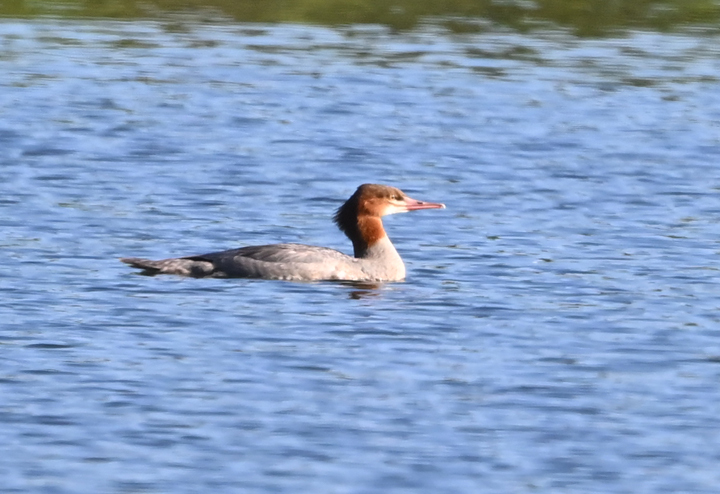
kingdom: Animalia
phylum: Chordata
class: Aves
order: Anseriformes
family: Anatidae
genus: Mergus
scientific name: Mergus merganser
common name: Common merganser
